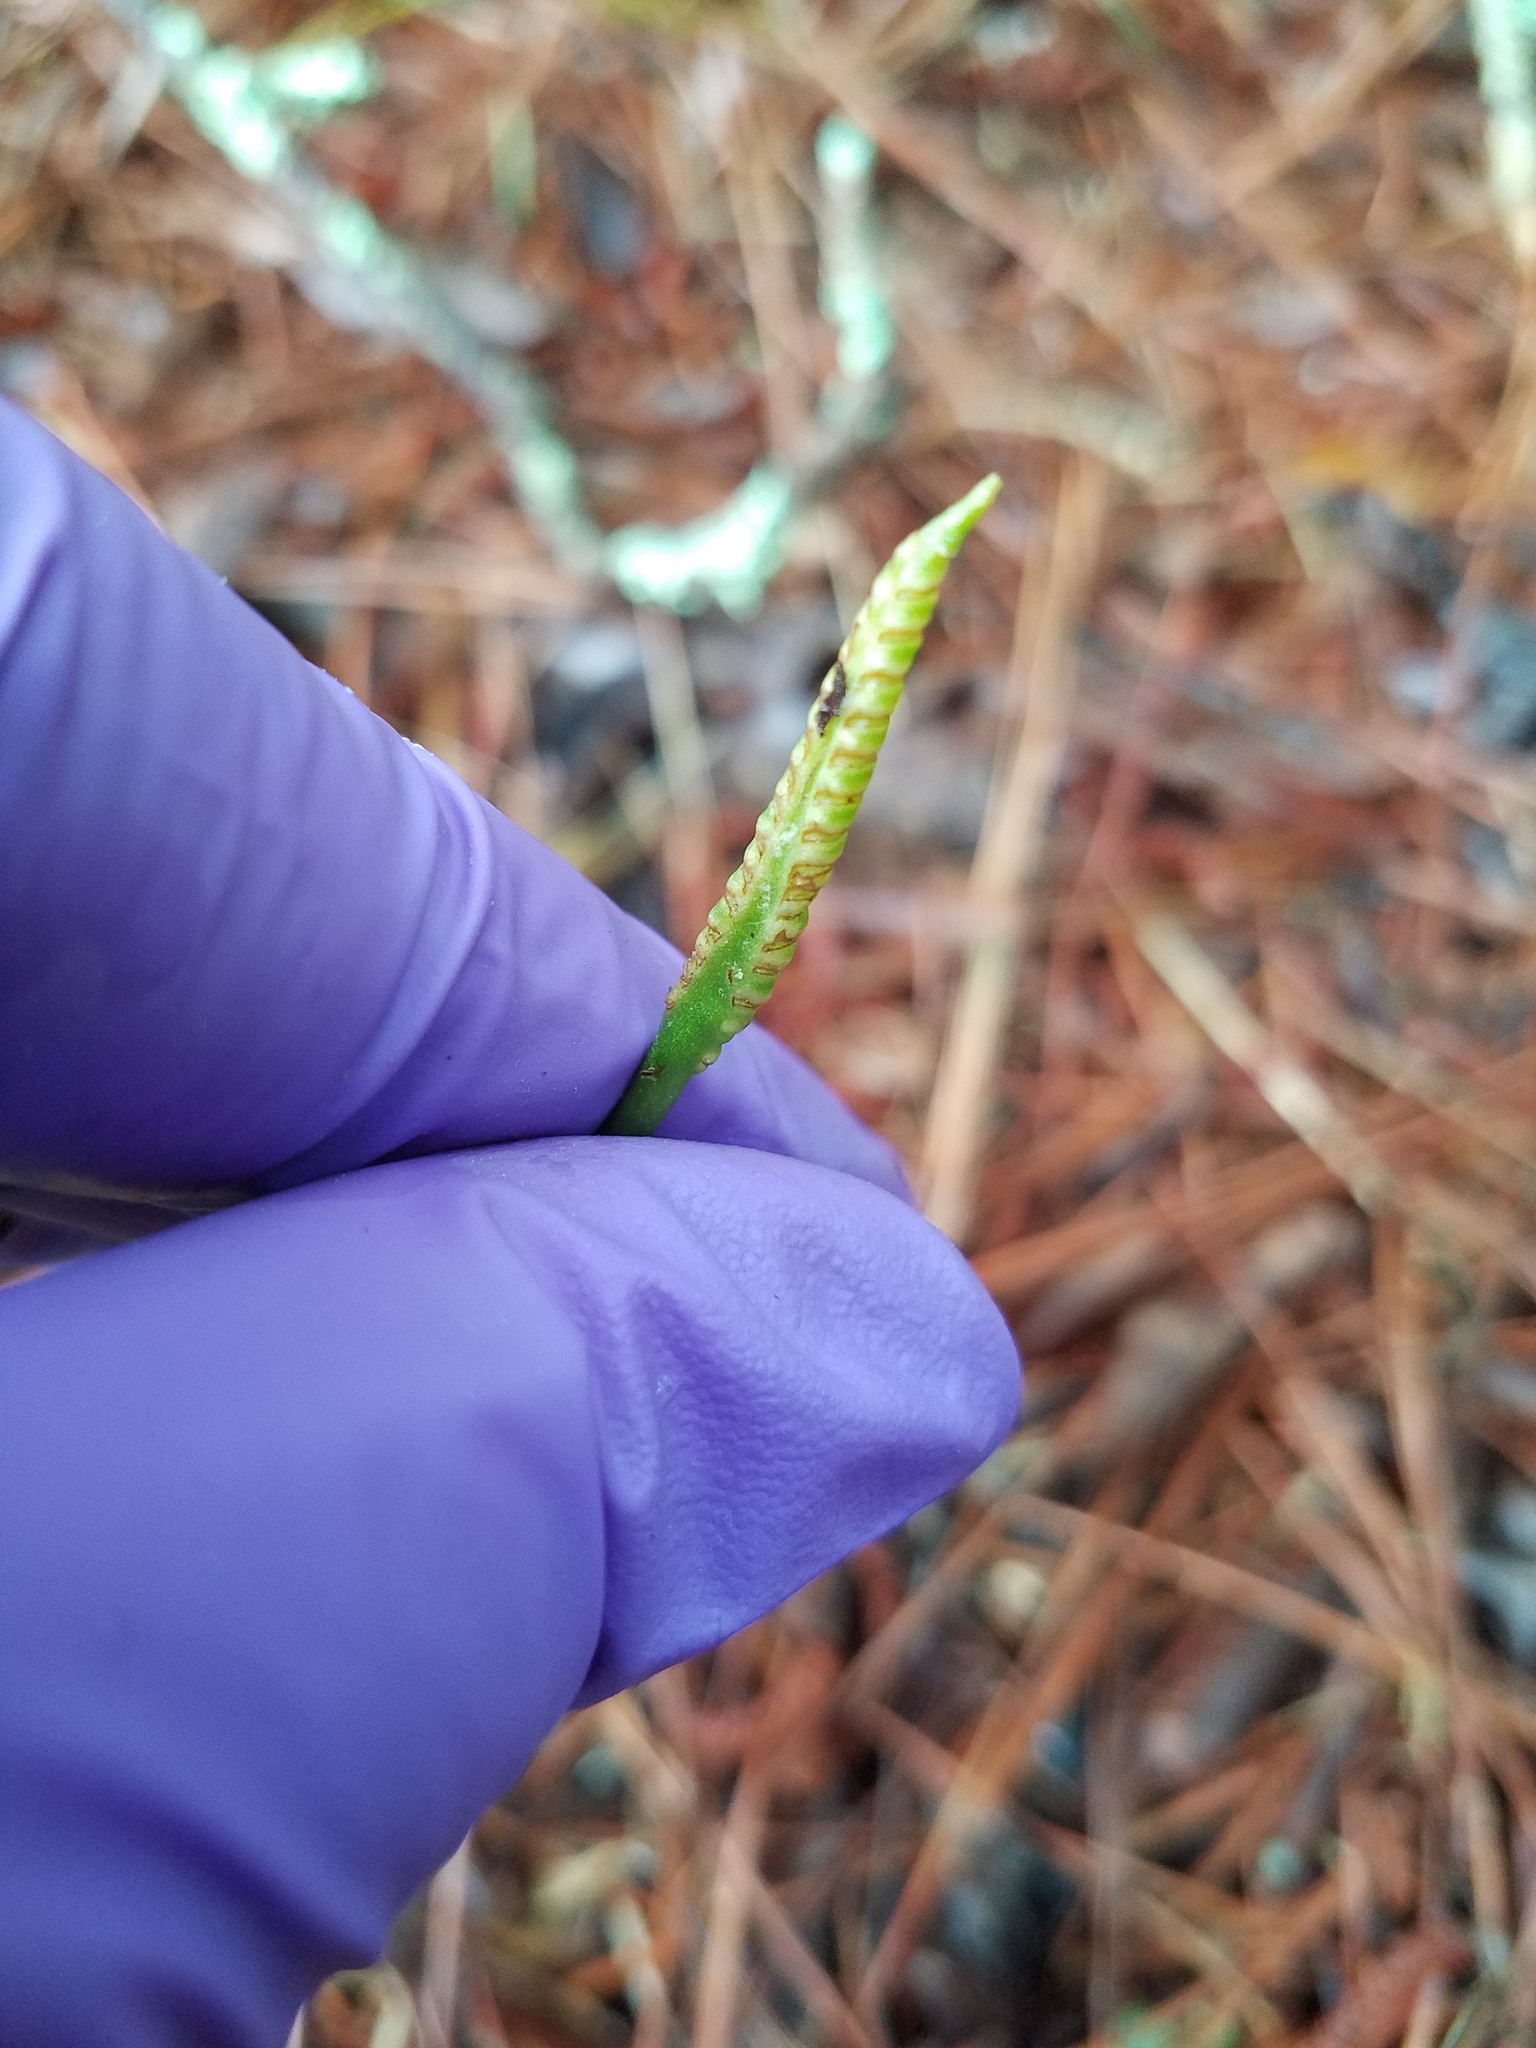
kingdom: Plantae
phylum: Tracheophyta
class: Polypodiopsida
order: Ophioglossales
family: Ophioglossaceae
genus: Ophioglossum
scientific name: Ophioglossum vulgatum
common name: Adder's-tongue
